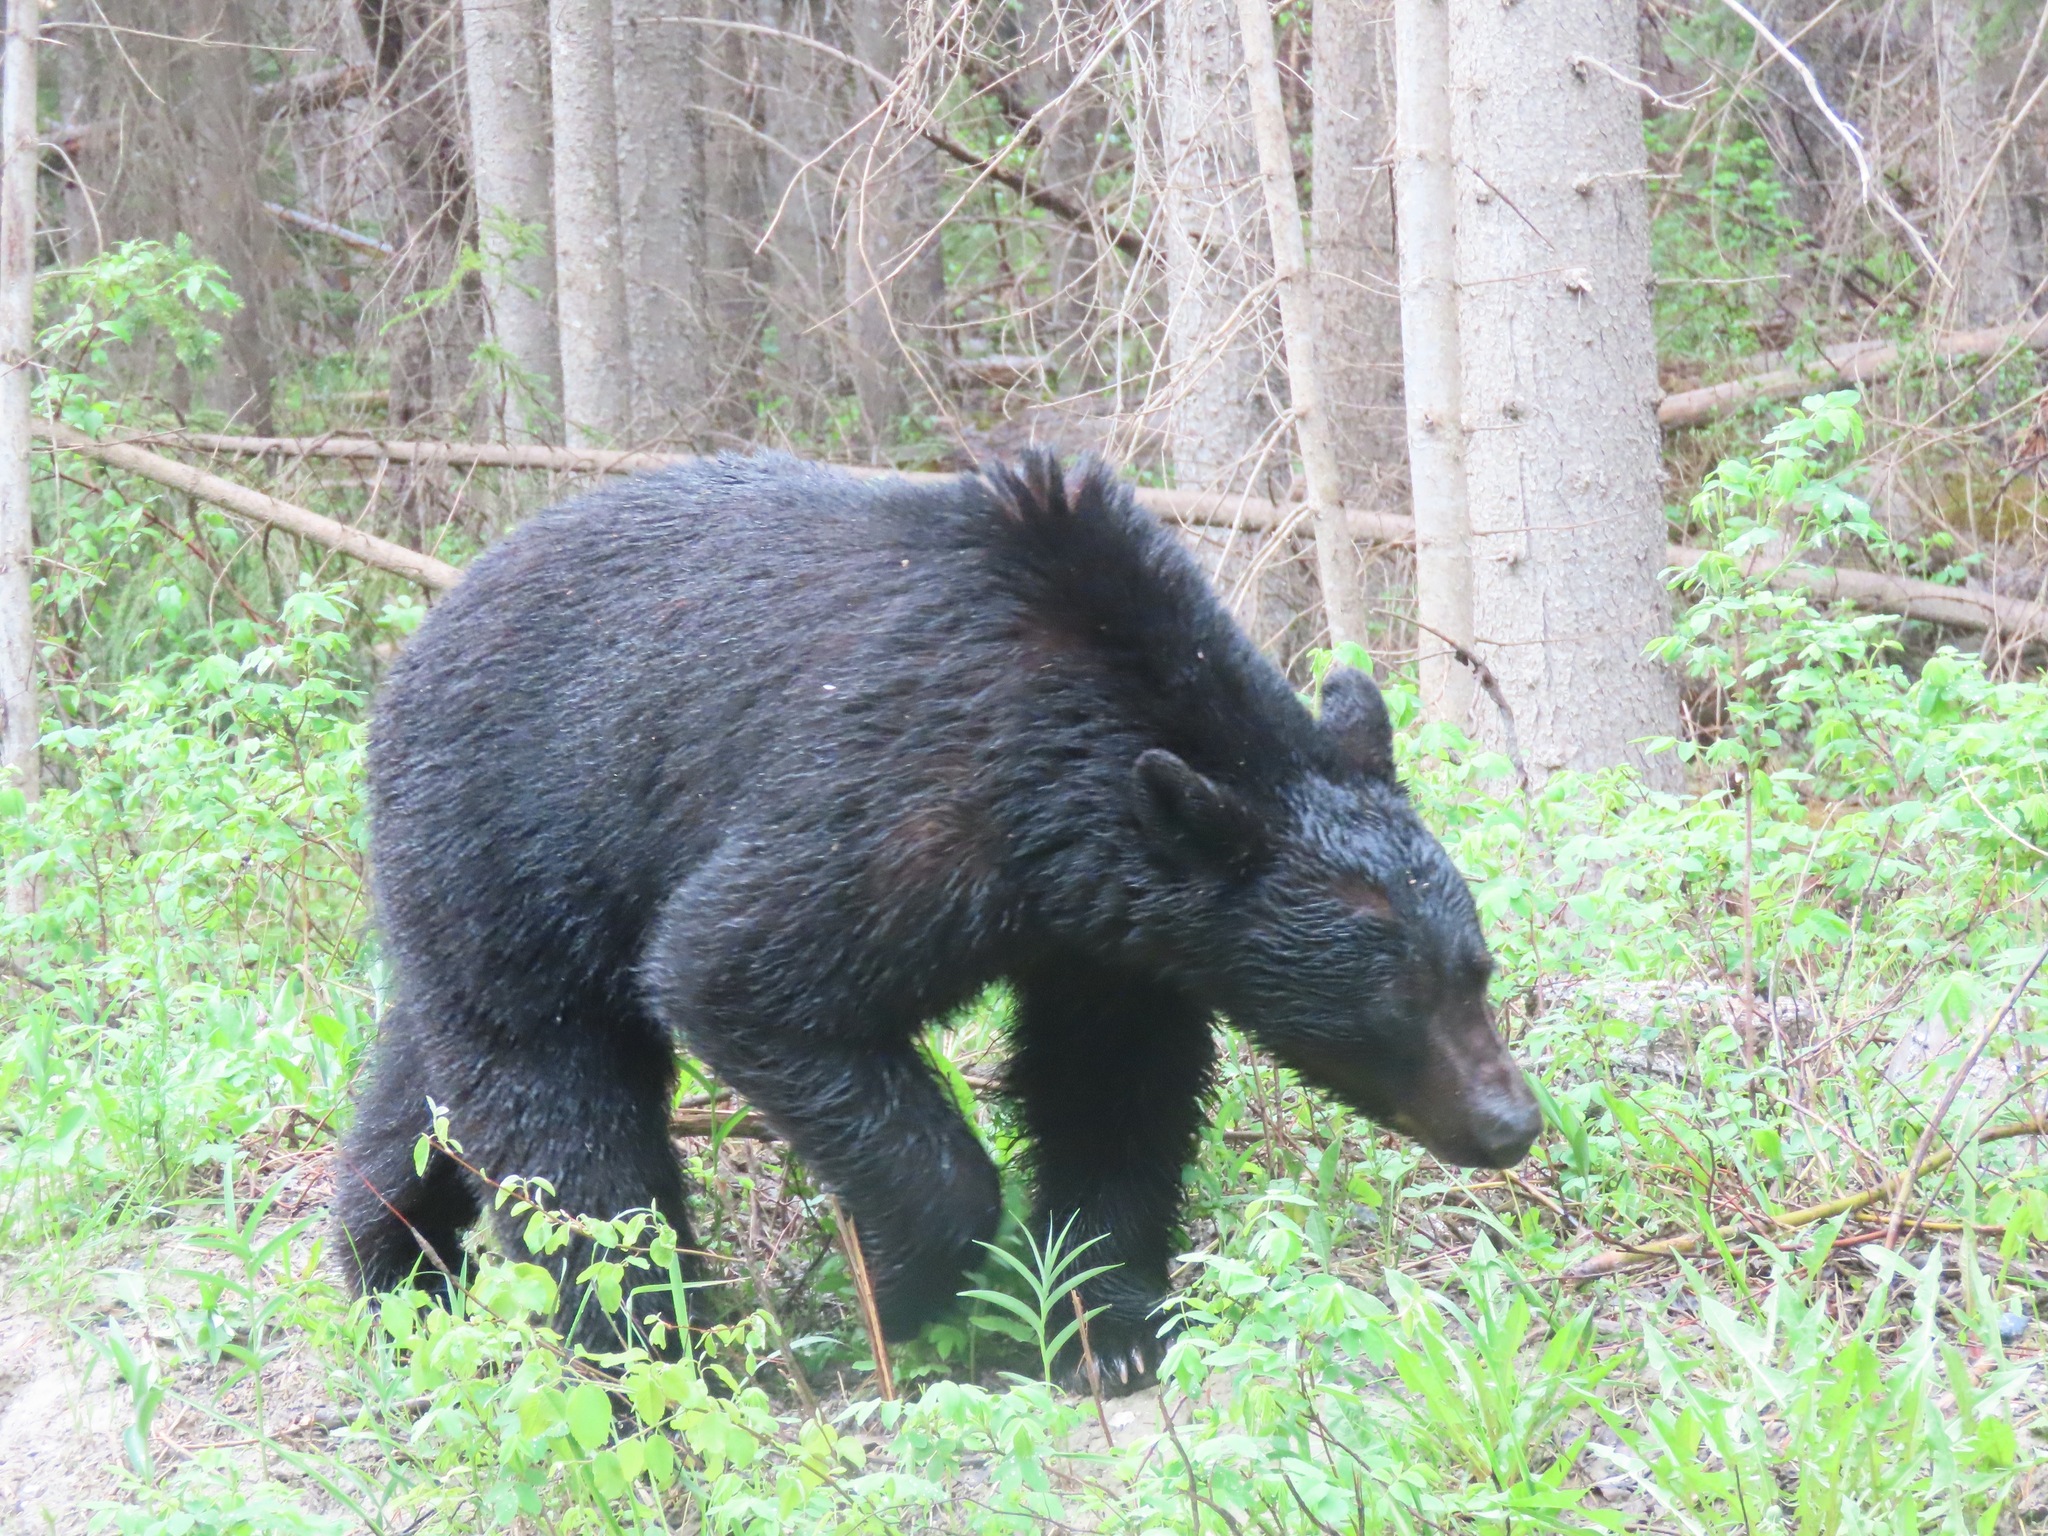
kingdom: Animalia
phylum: Chordata
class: Mammalia
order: Carnivora
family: Ursidae
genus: Ursus
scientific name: Ursus americanus
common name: American black bear
